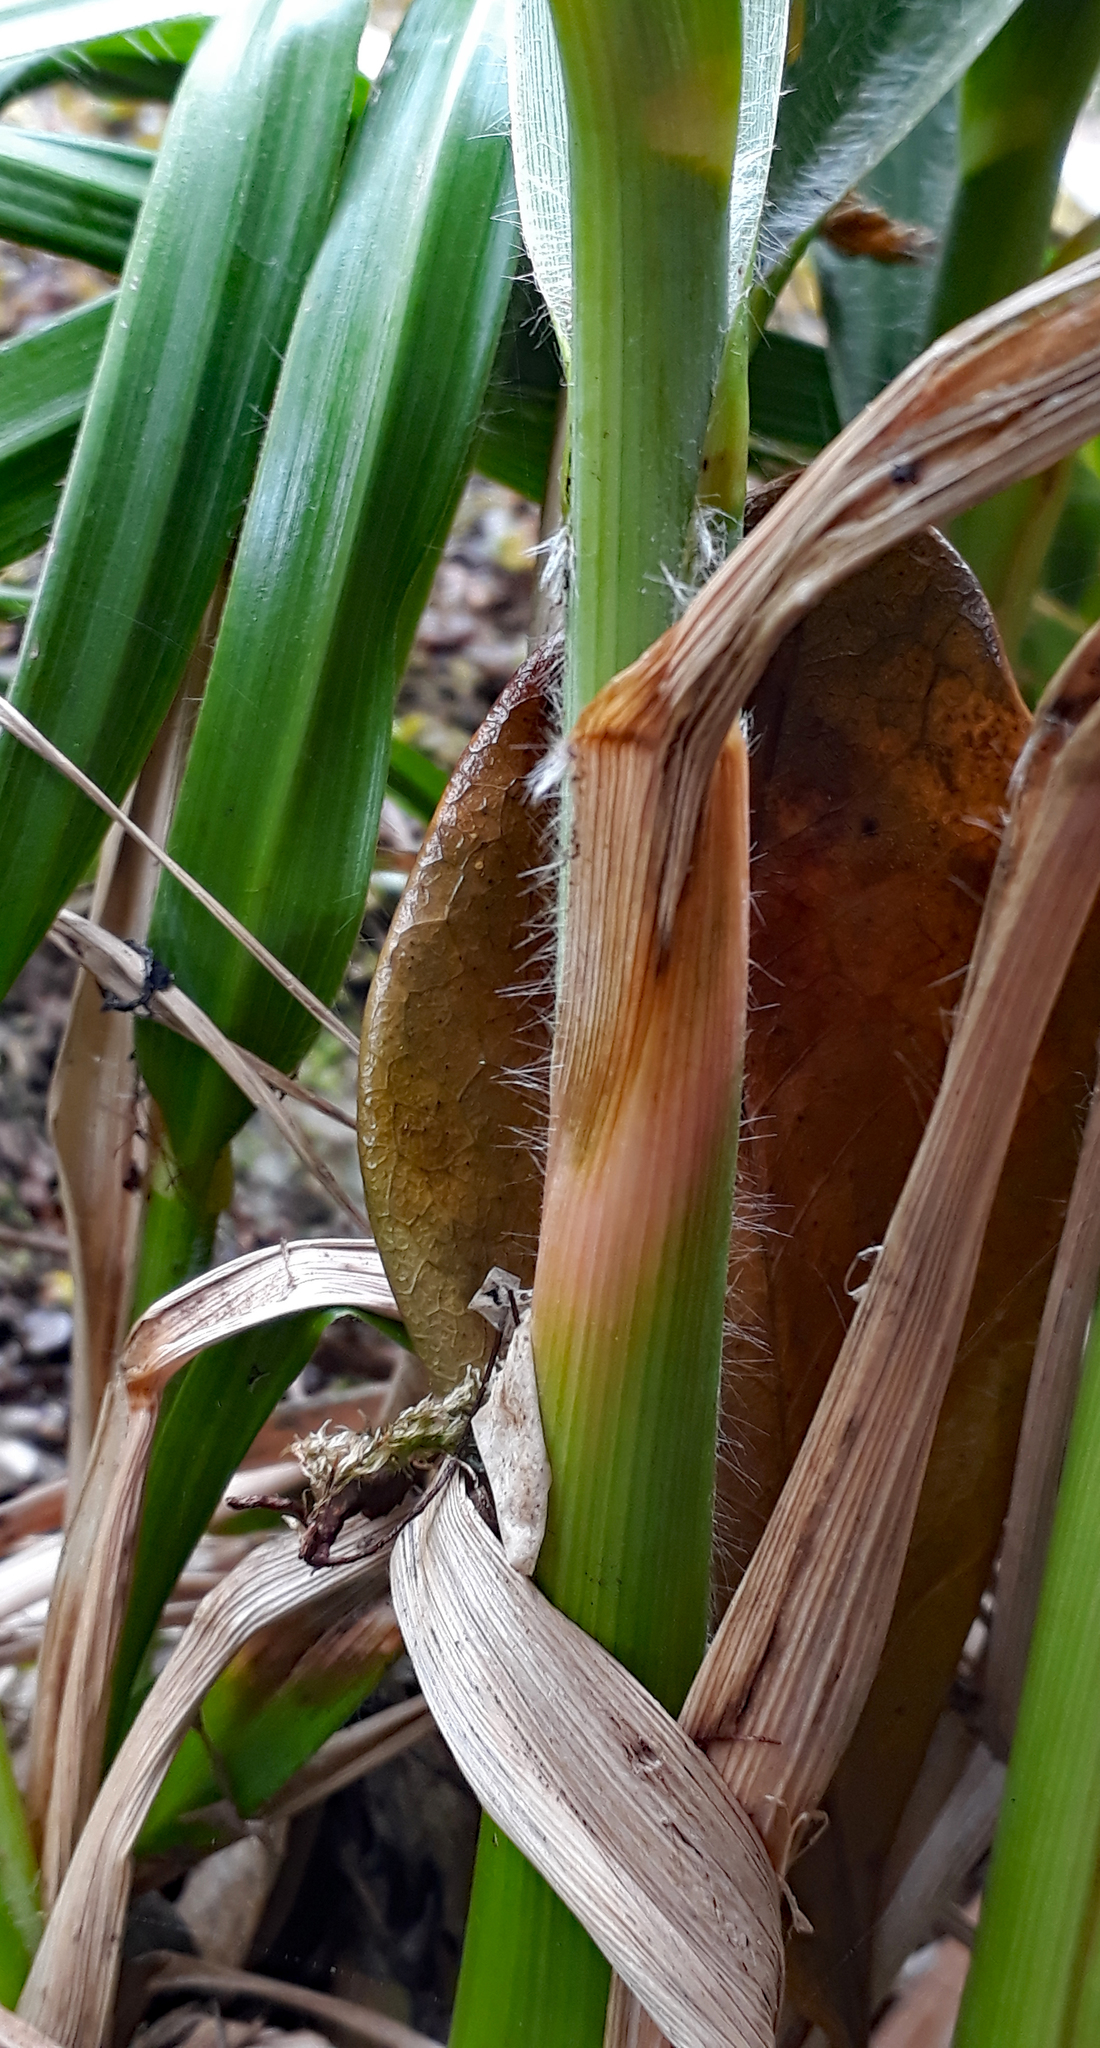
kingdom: Plantae
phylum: Tracheophyta
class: Liliopsida
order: Poales
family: Poaceae
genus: Austroderia
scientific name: Austroderia turbaria
